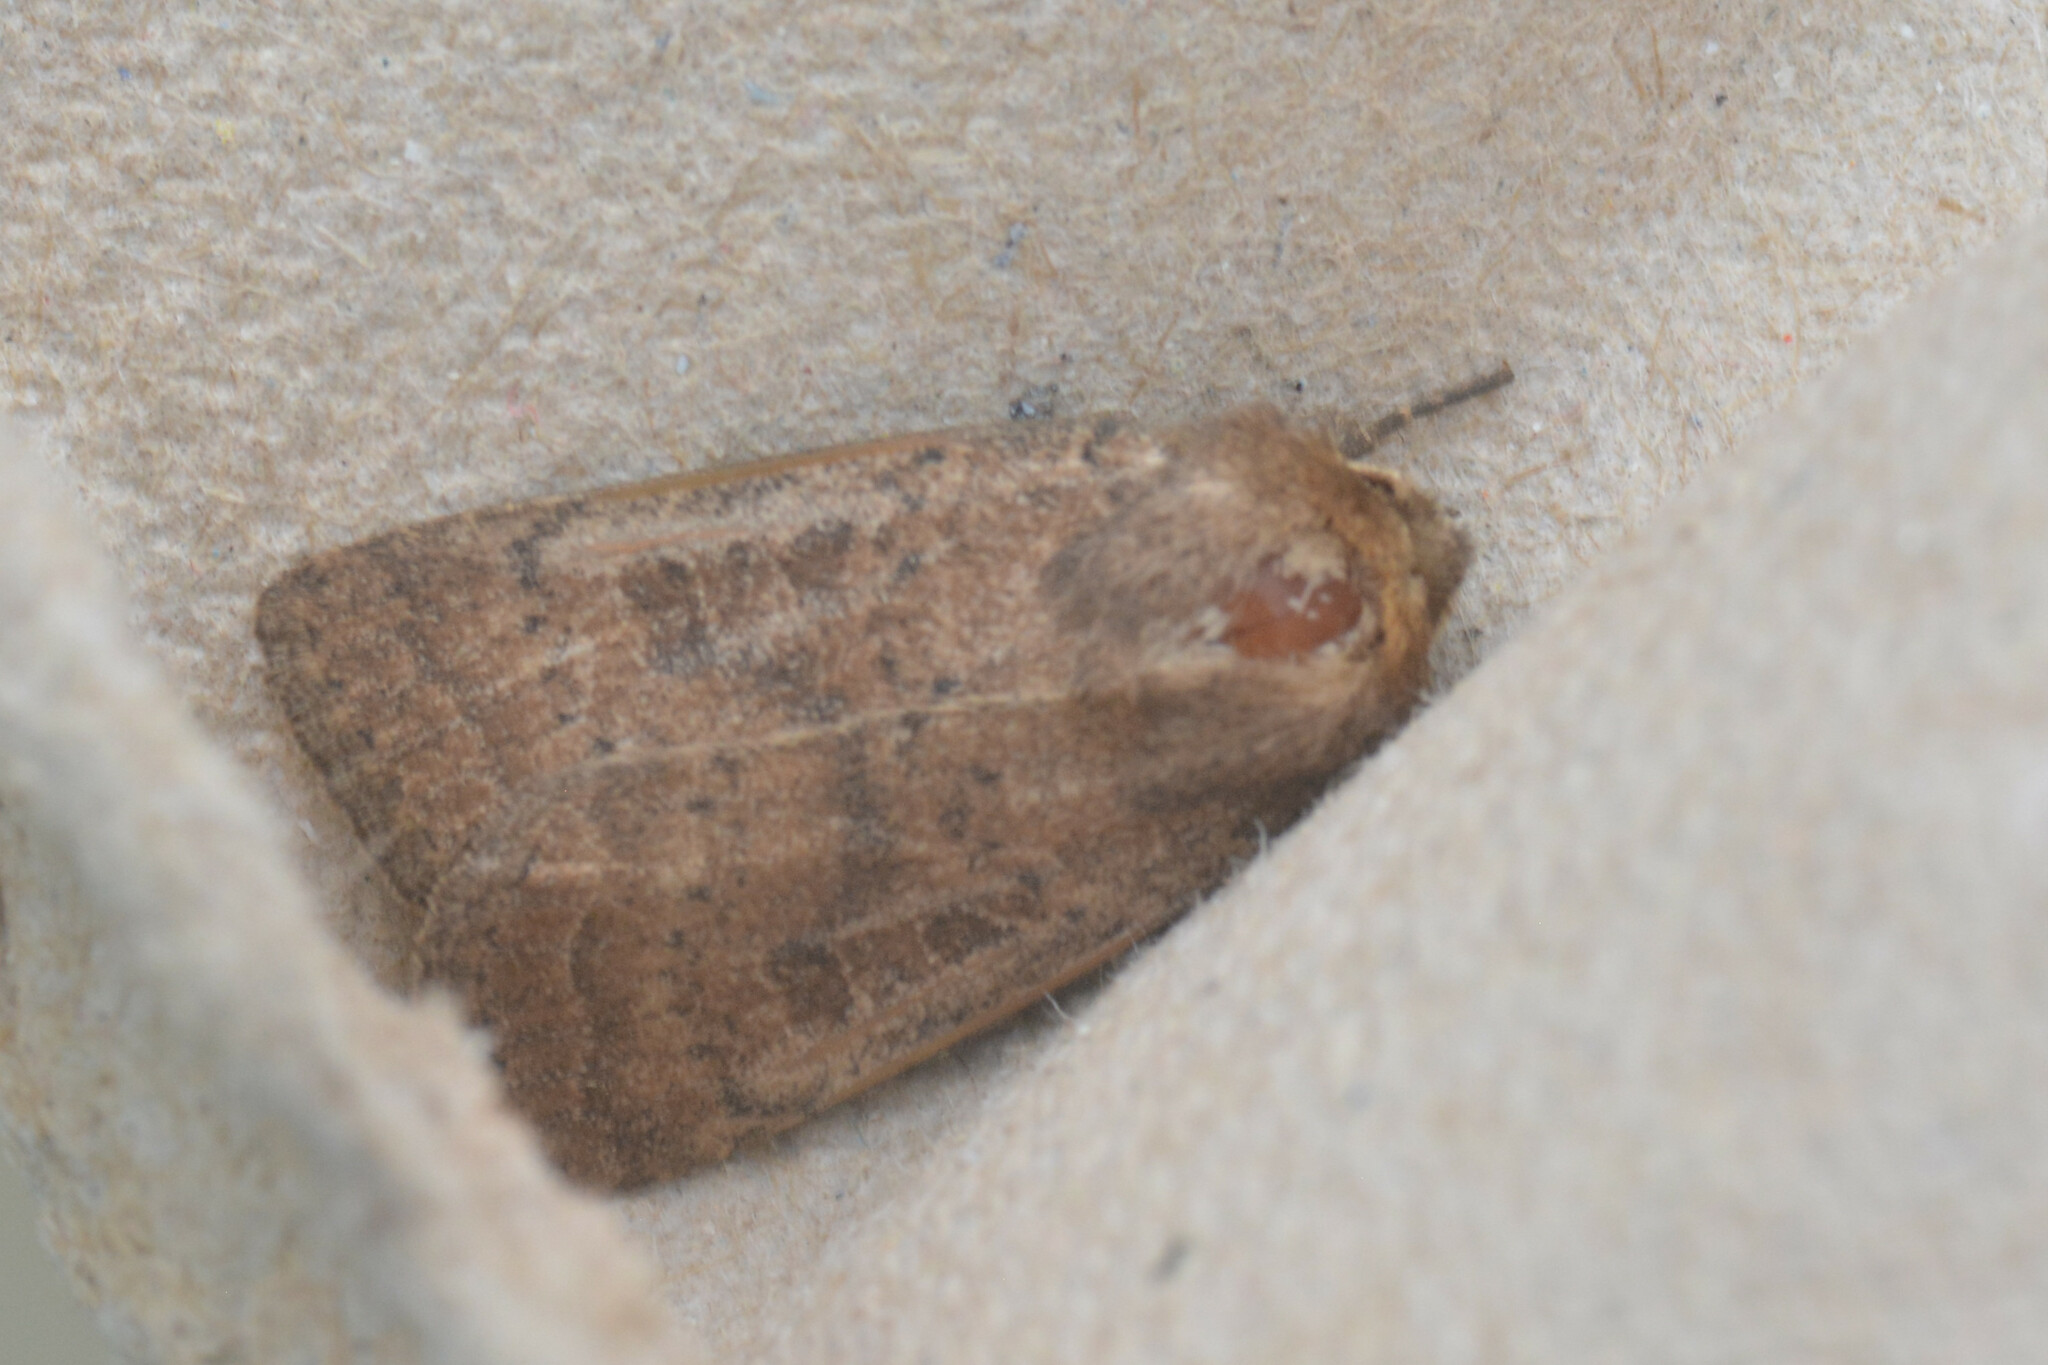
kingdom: Animalia
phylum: Arthropoda
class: Insecta
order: Lepidoptera
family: Noctuidae
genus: Hoplodrina
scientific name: Hoplodrina octogenaria
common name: Uncertain
